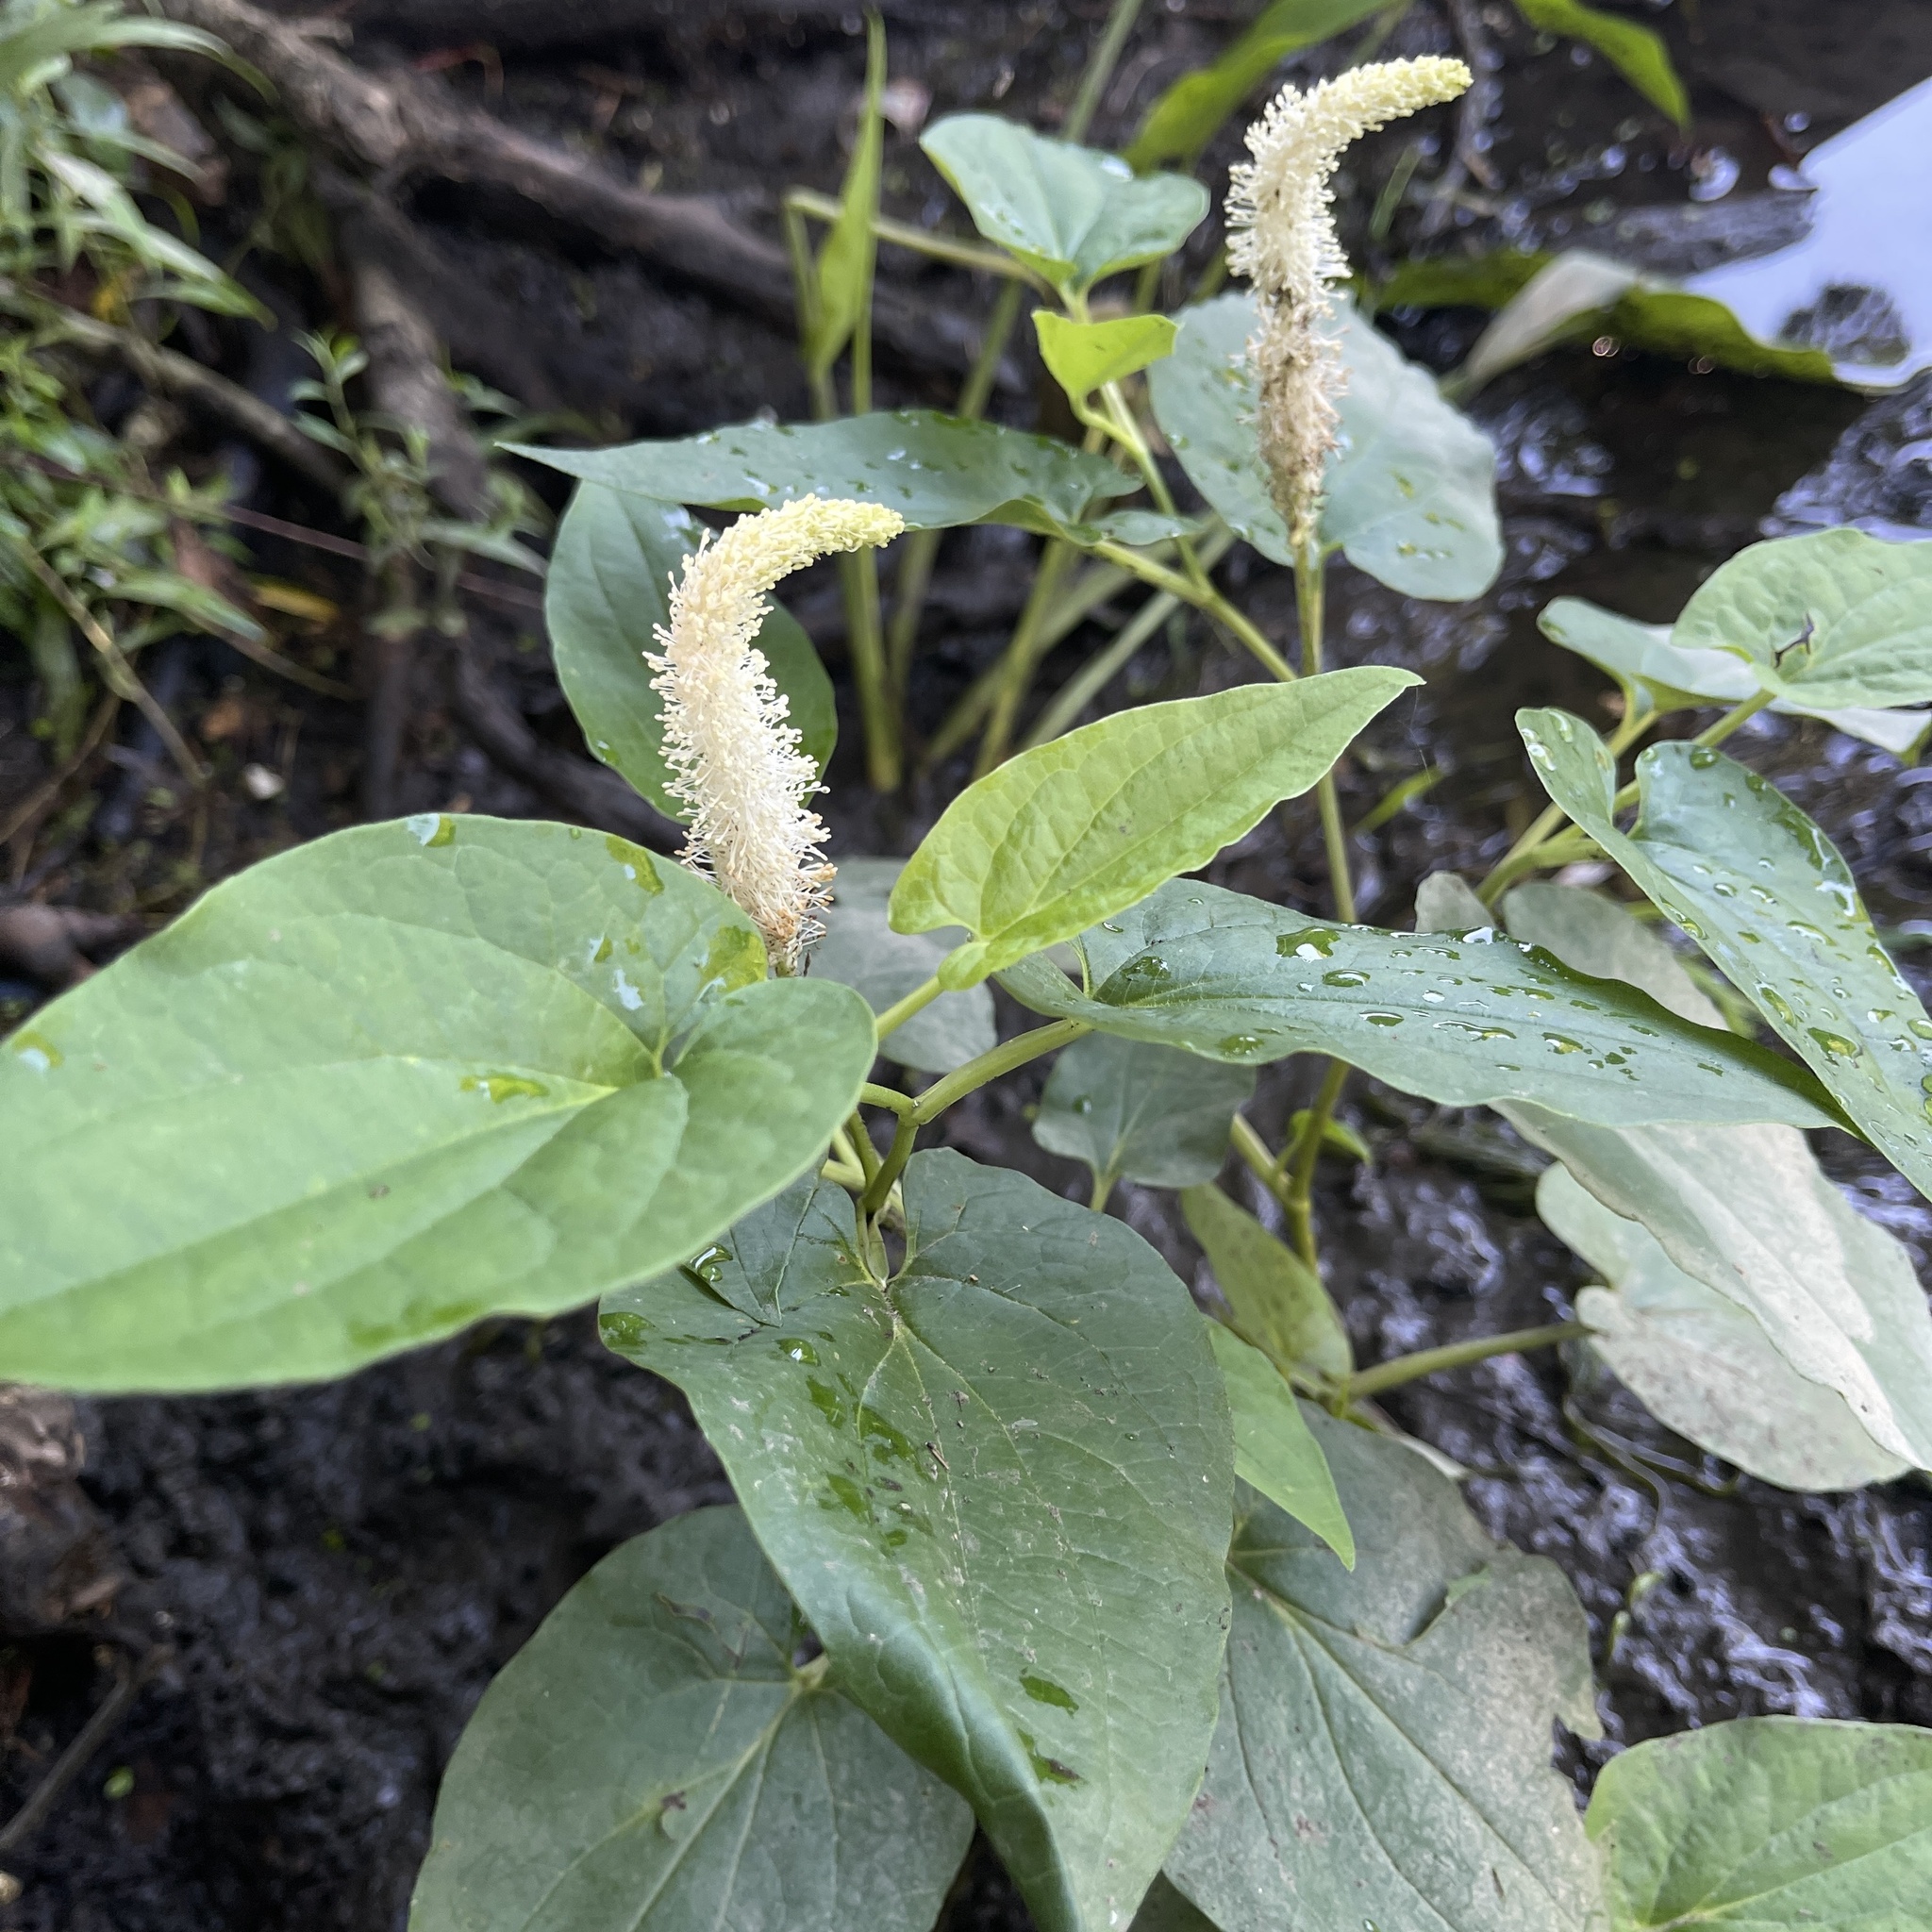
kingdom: Plantae
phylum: Tracheophyta
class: Magnoliopsida
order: Piperales
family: Saururaceae
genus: Saururus
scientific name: Saururus cernuus
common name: Lizard's-tail
